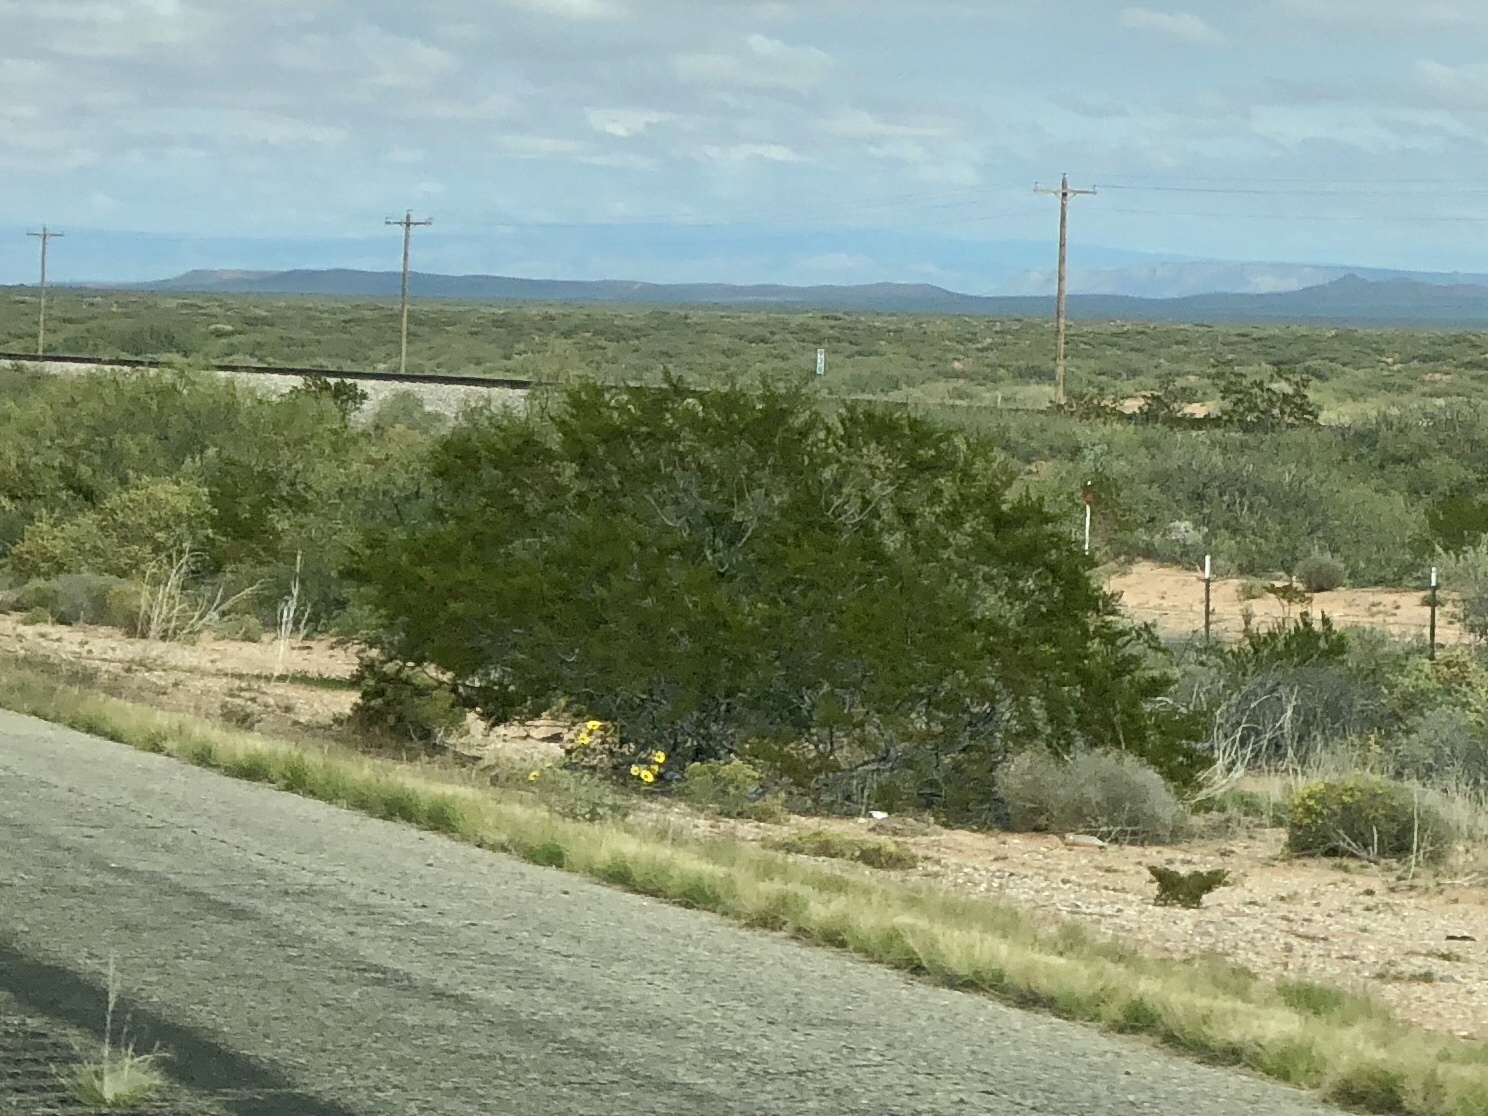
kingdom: Plantae
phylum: Tracheophyta
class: Magnoliopsida
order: Zygophyllales
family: Zygophyllaceae
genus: Larrea
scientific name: Larrea tridentata
